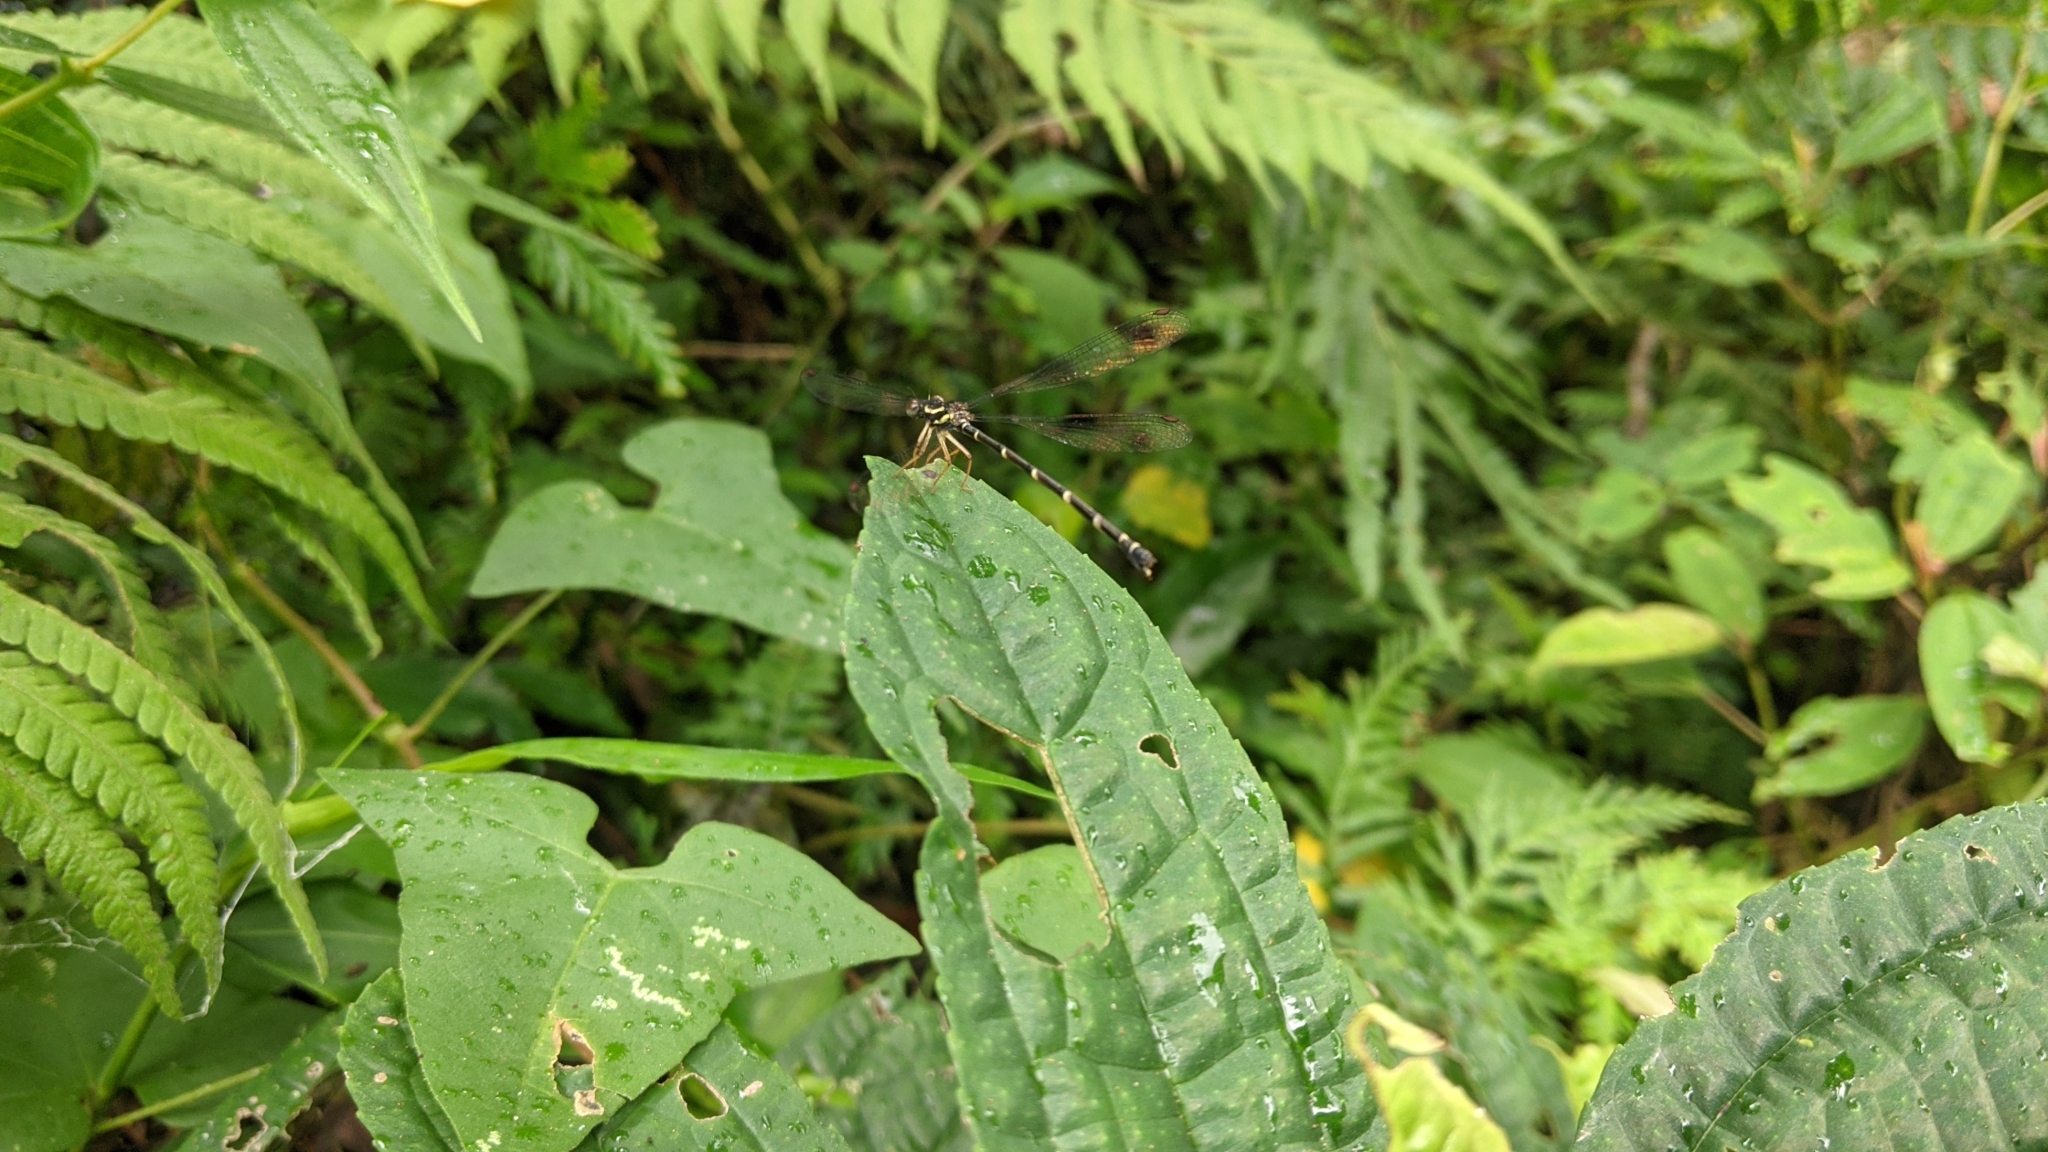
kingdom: Animalia
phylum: Arthropoda
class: Insecta
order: Odonata
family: Megapodagrionidae
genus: Rhipidolestes
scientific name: Rhipidolestes aculeatus
